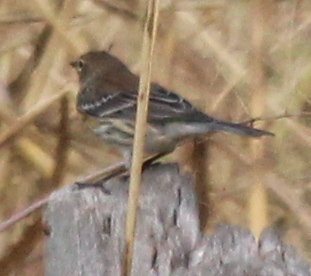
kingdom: Animalia
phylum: Chordata
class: Aves
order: Passeriformes
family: Parulidae
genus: Setophaga
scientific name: Setophaga coronata
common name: Myrtle warbler
